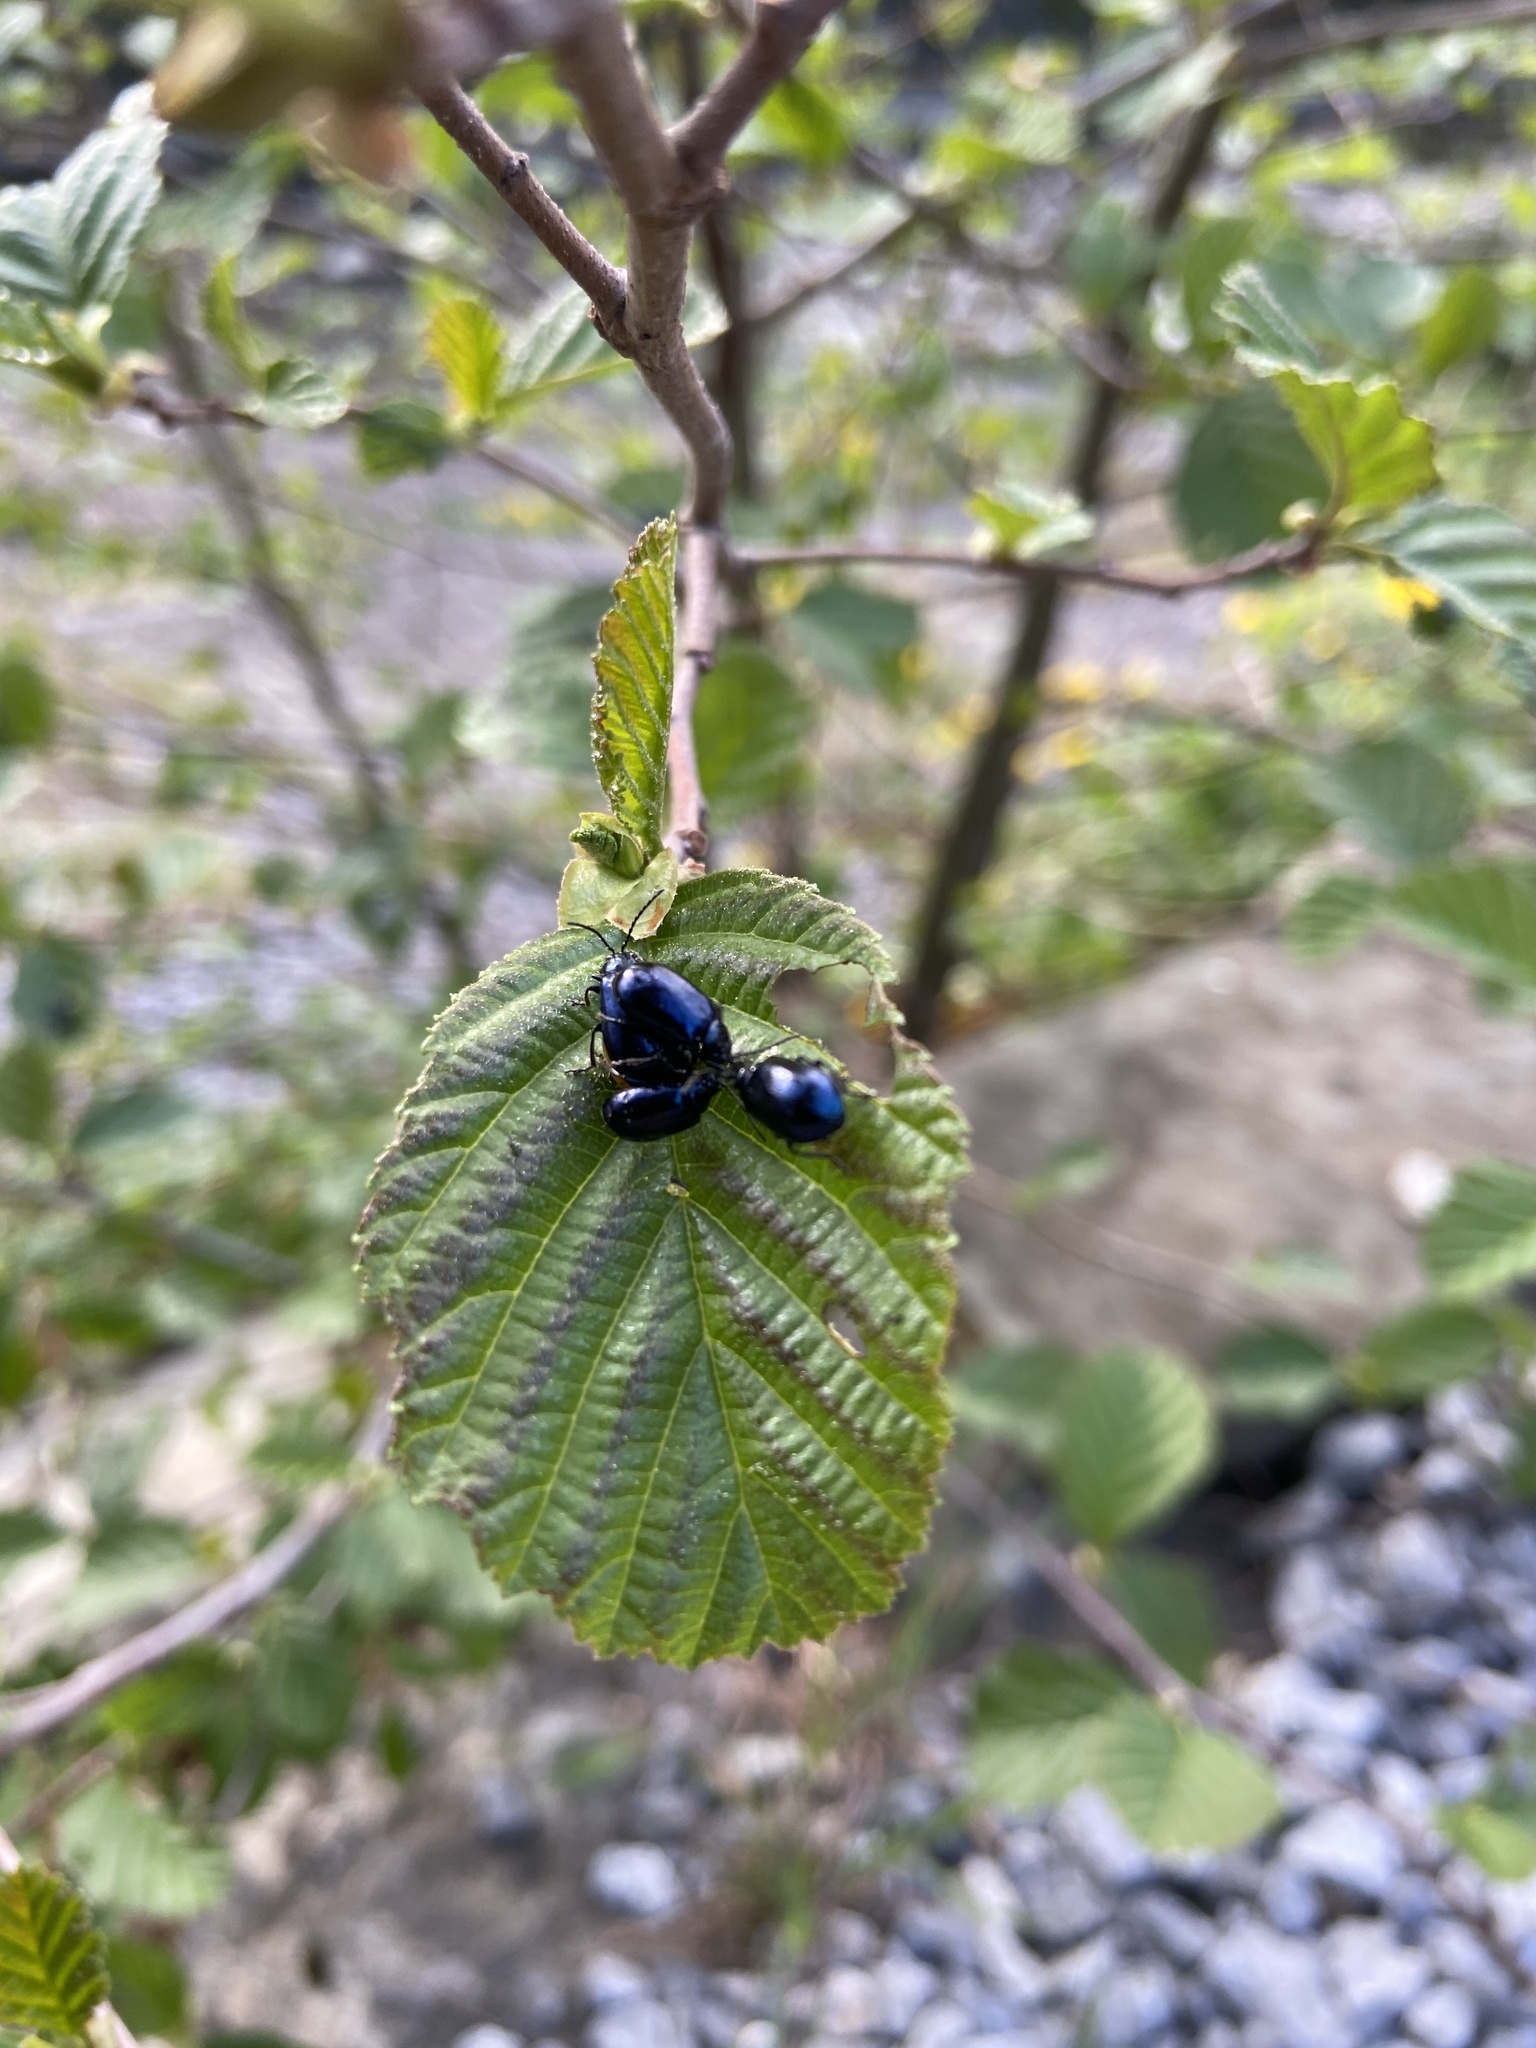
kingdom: Animalia
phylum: Arthropoda
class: Insecta
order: Coleoptera
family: Chrysomelidae
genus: Agelastica
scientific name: Agelastica alni
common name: Alder leaf beetle
